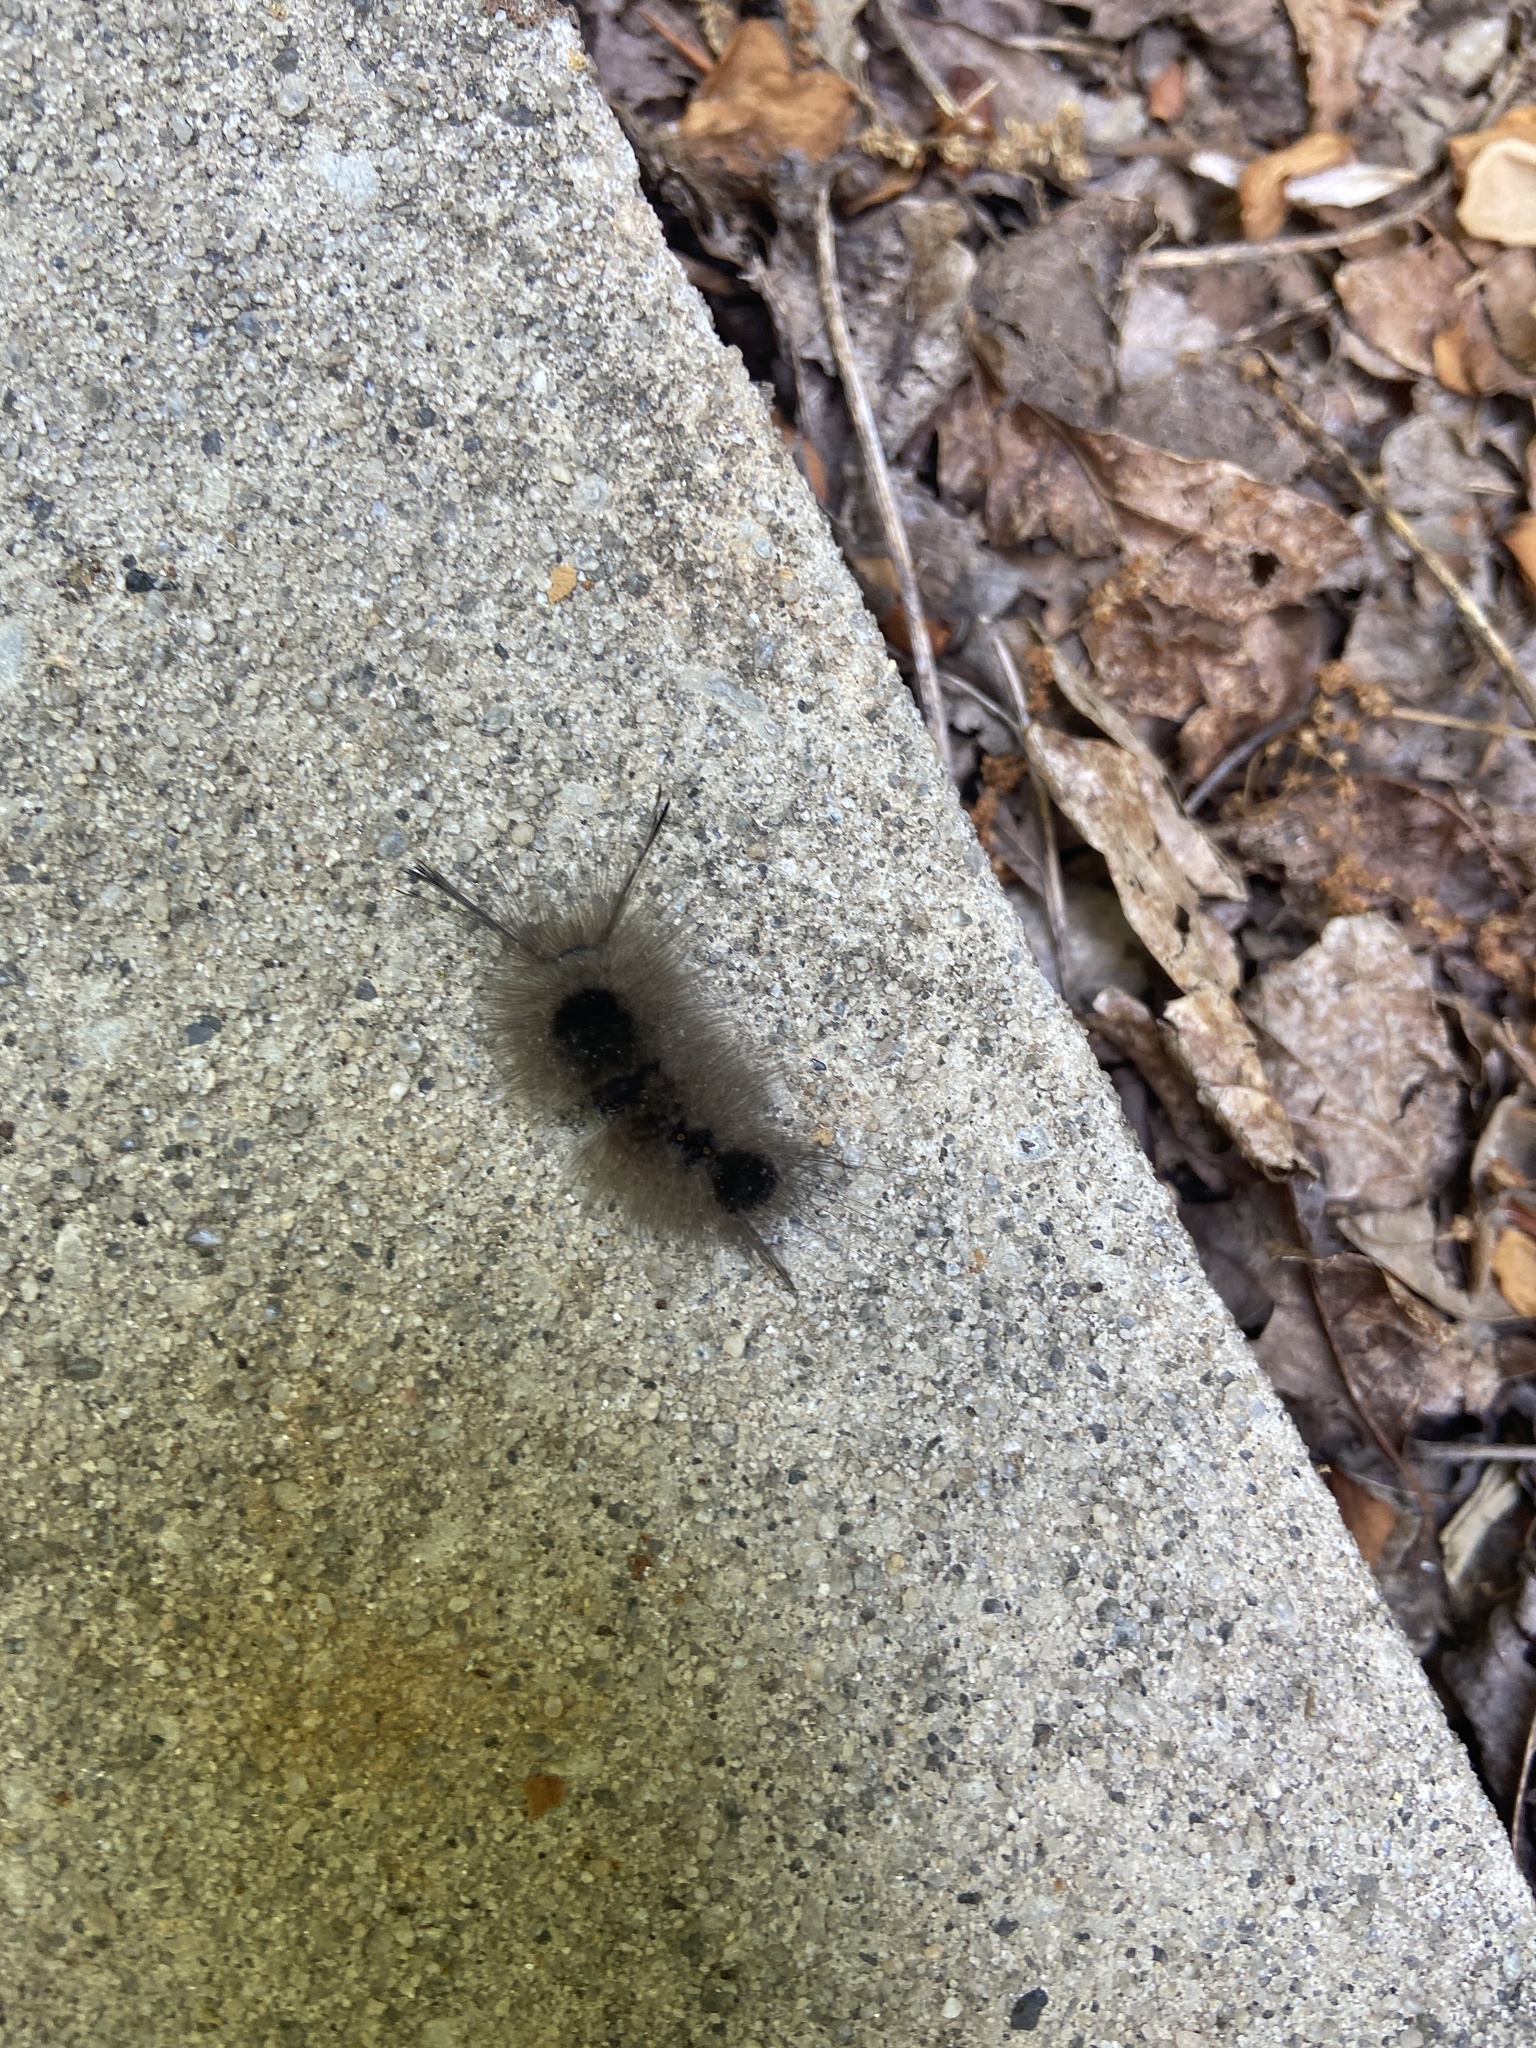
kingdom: Animalia
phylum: Arthropoda
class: Insecta
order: Lepidoptera
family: Erebidae
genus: Dasychira
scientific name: Dasychira obliquata
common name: Streaked tussock moth
